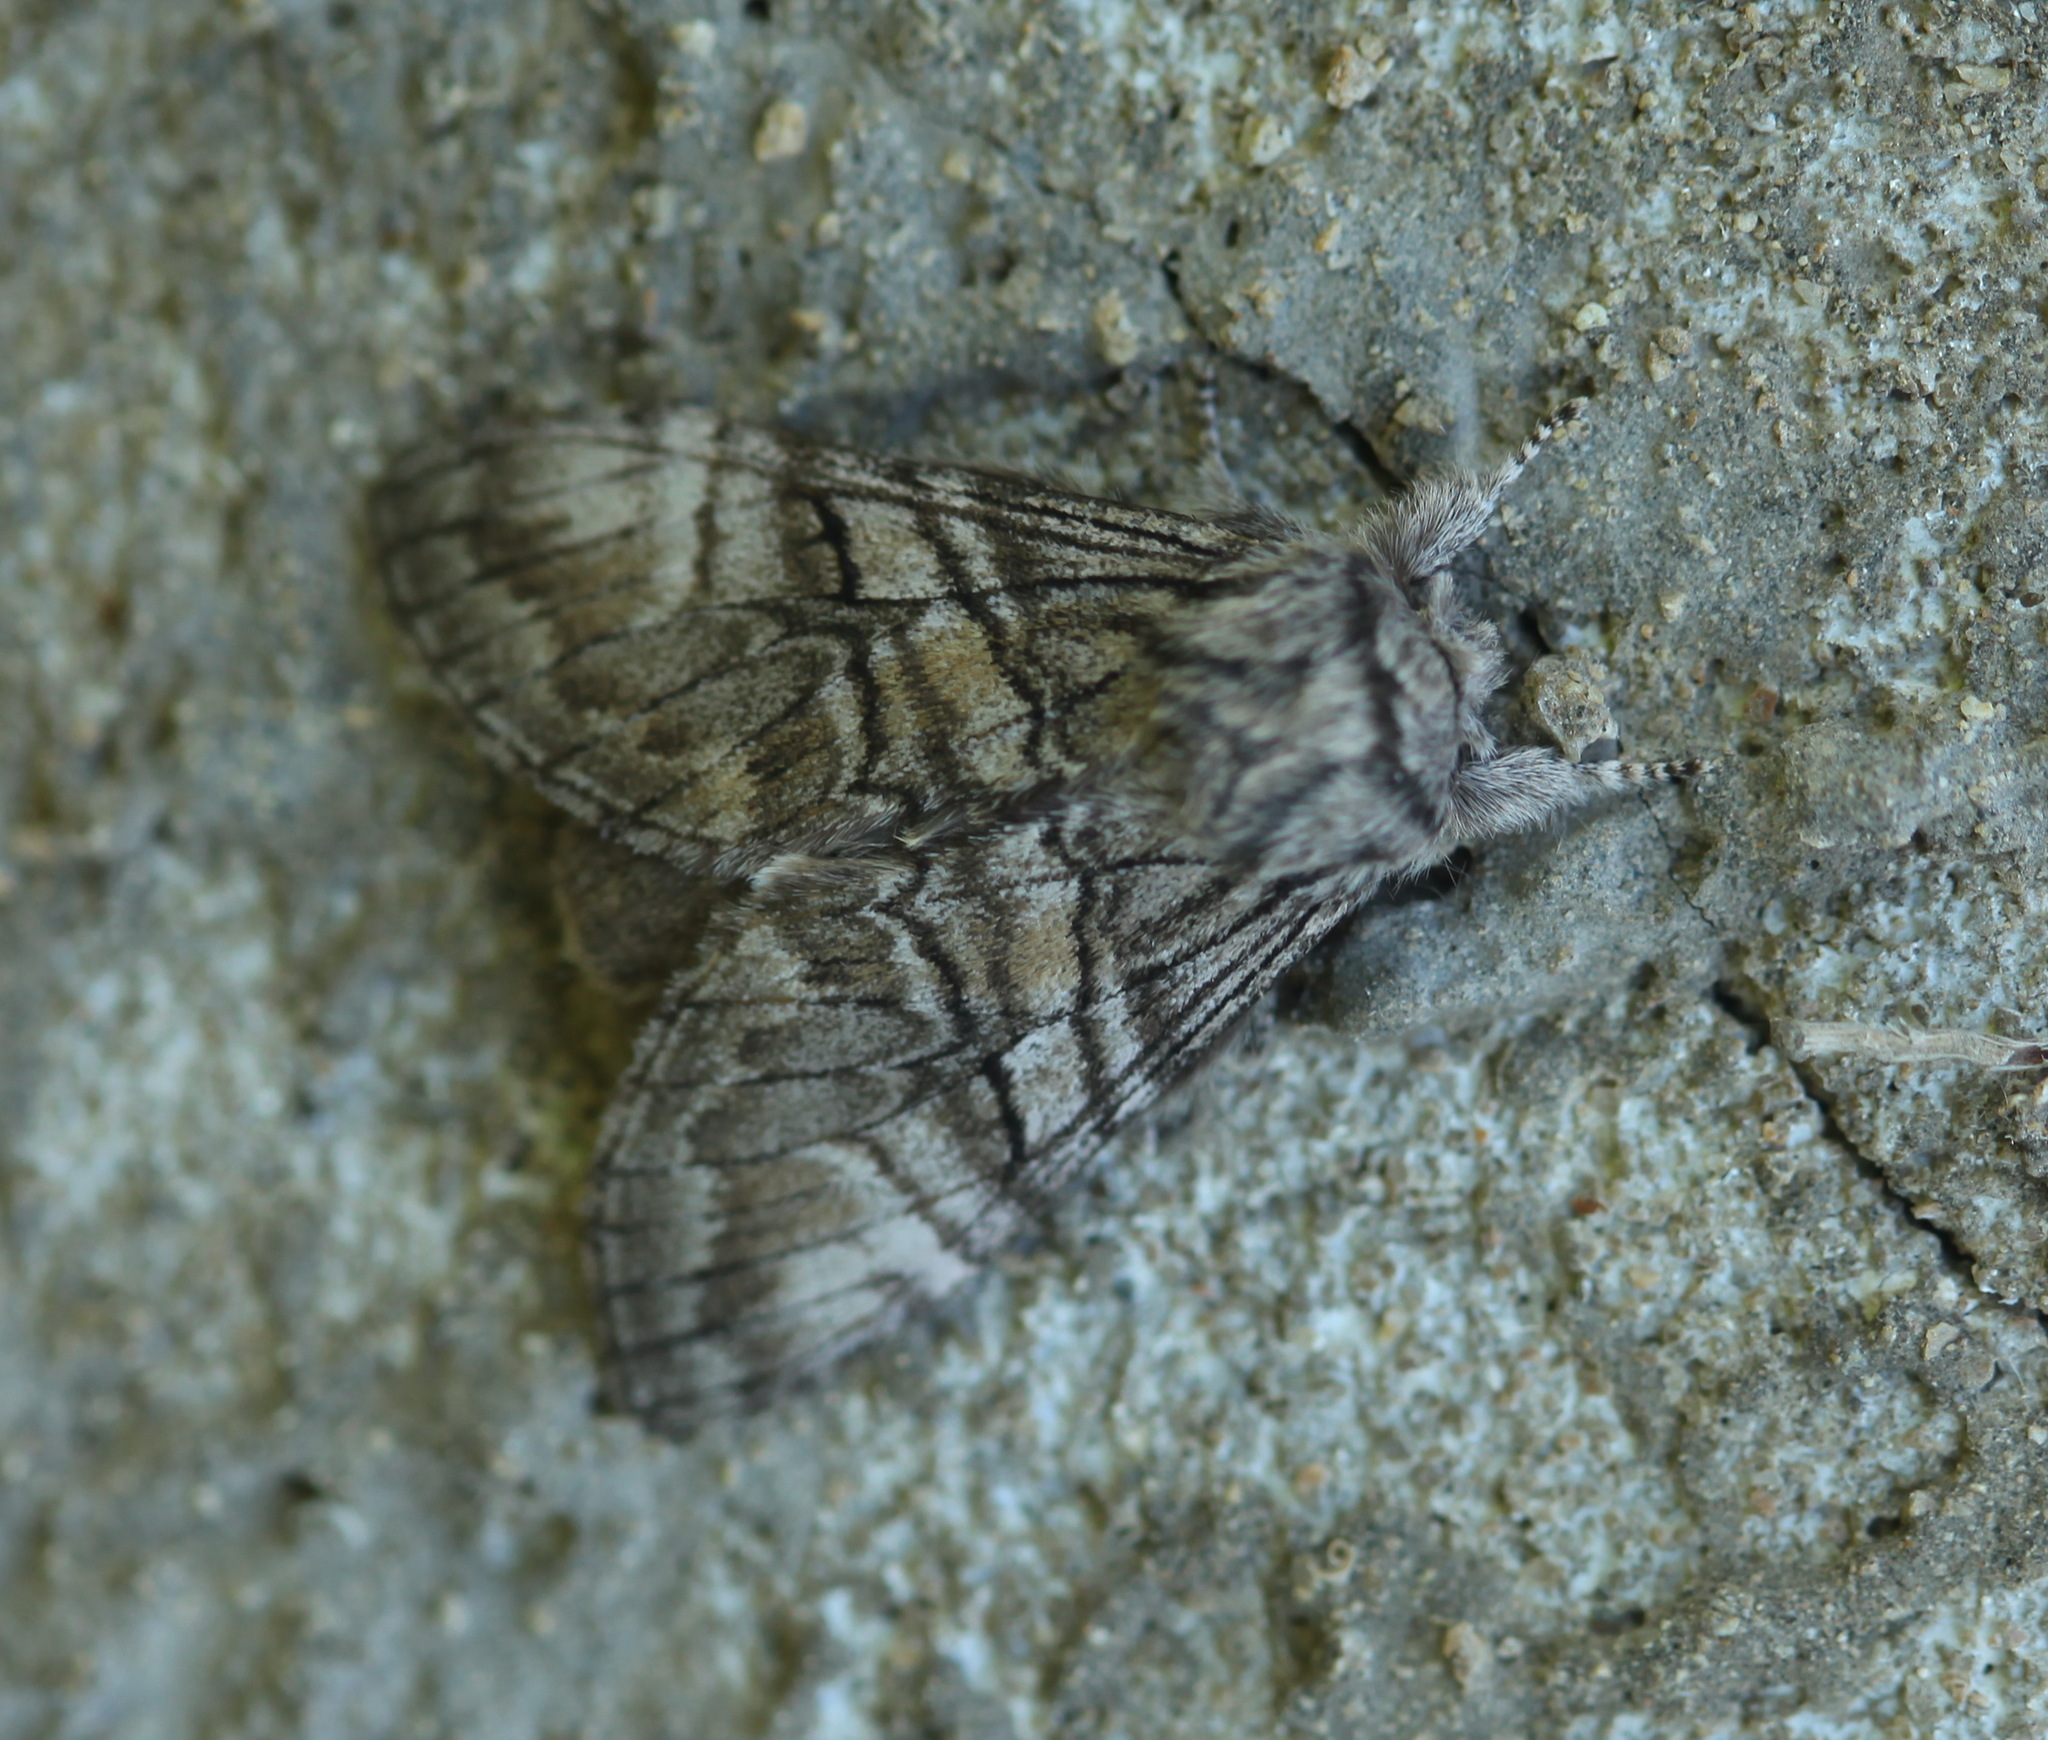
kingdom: Animalia
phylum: Arthropoda
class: Insecta
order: Lepidoptera
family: Notodontidae
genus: Epodonta
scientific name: Epodonta lineata
